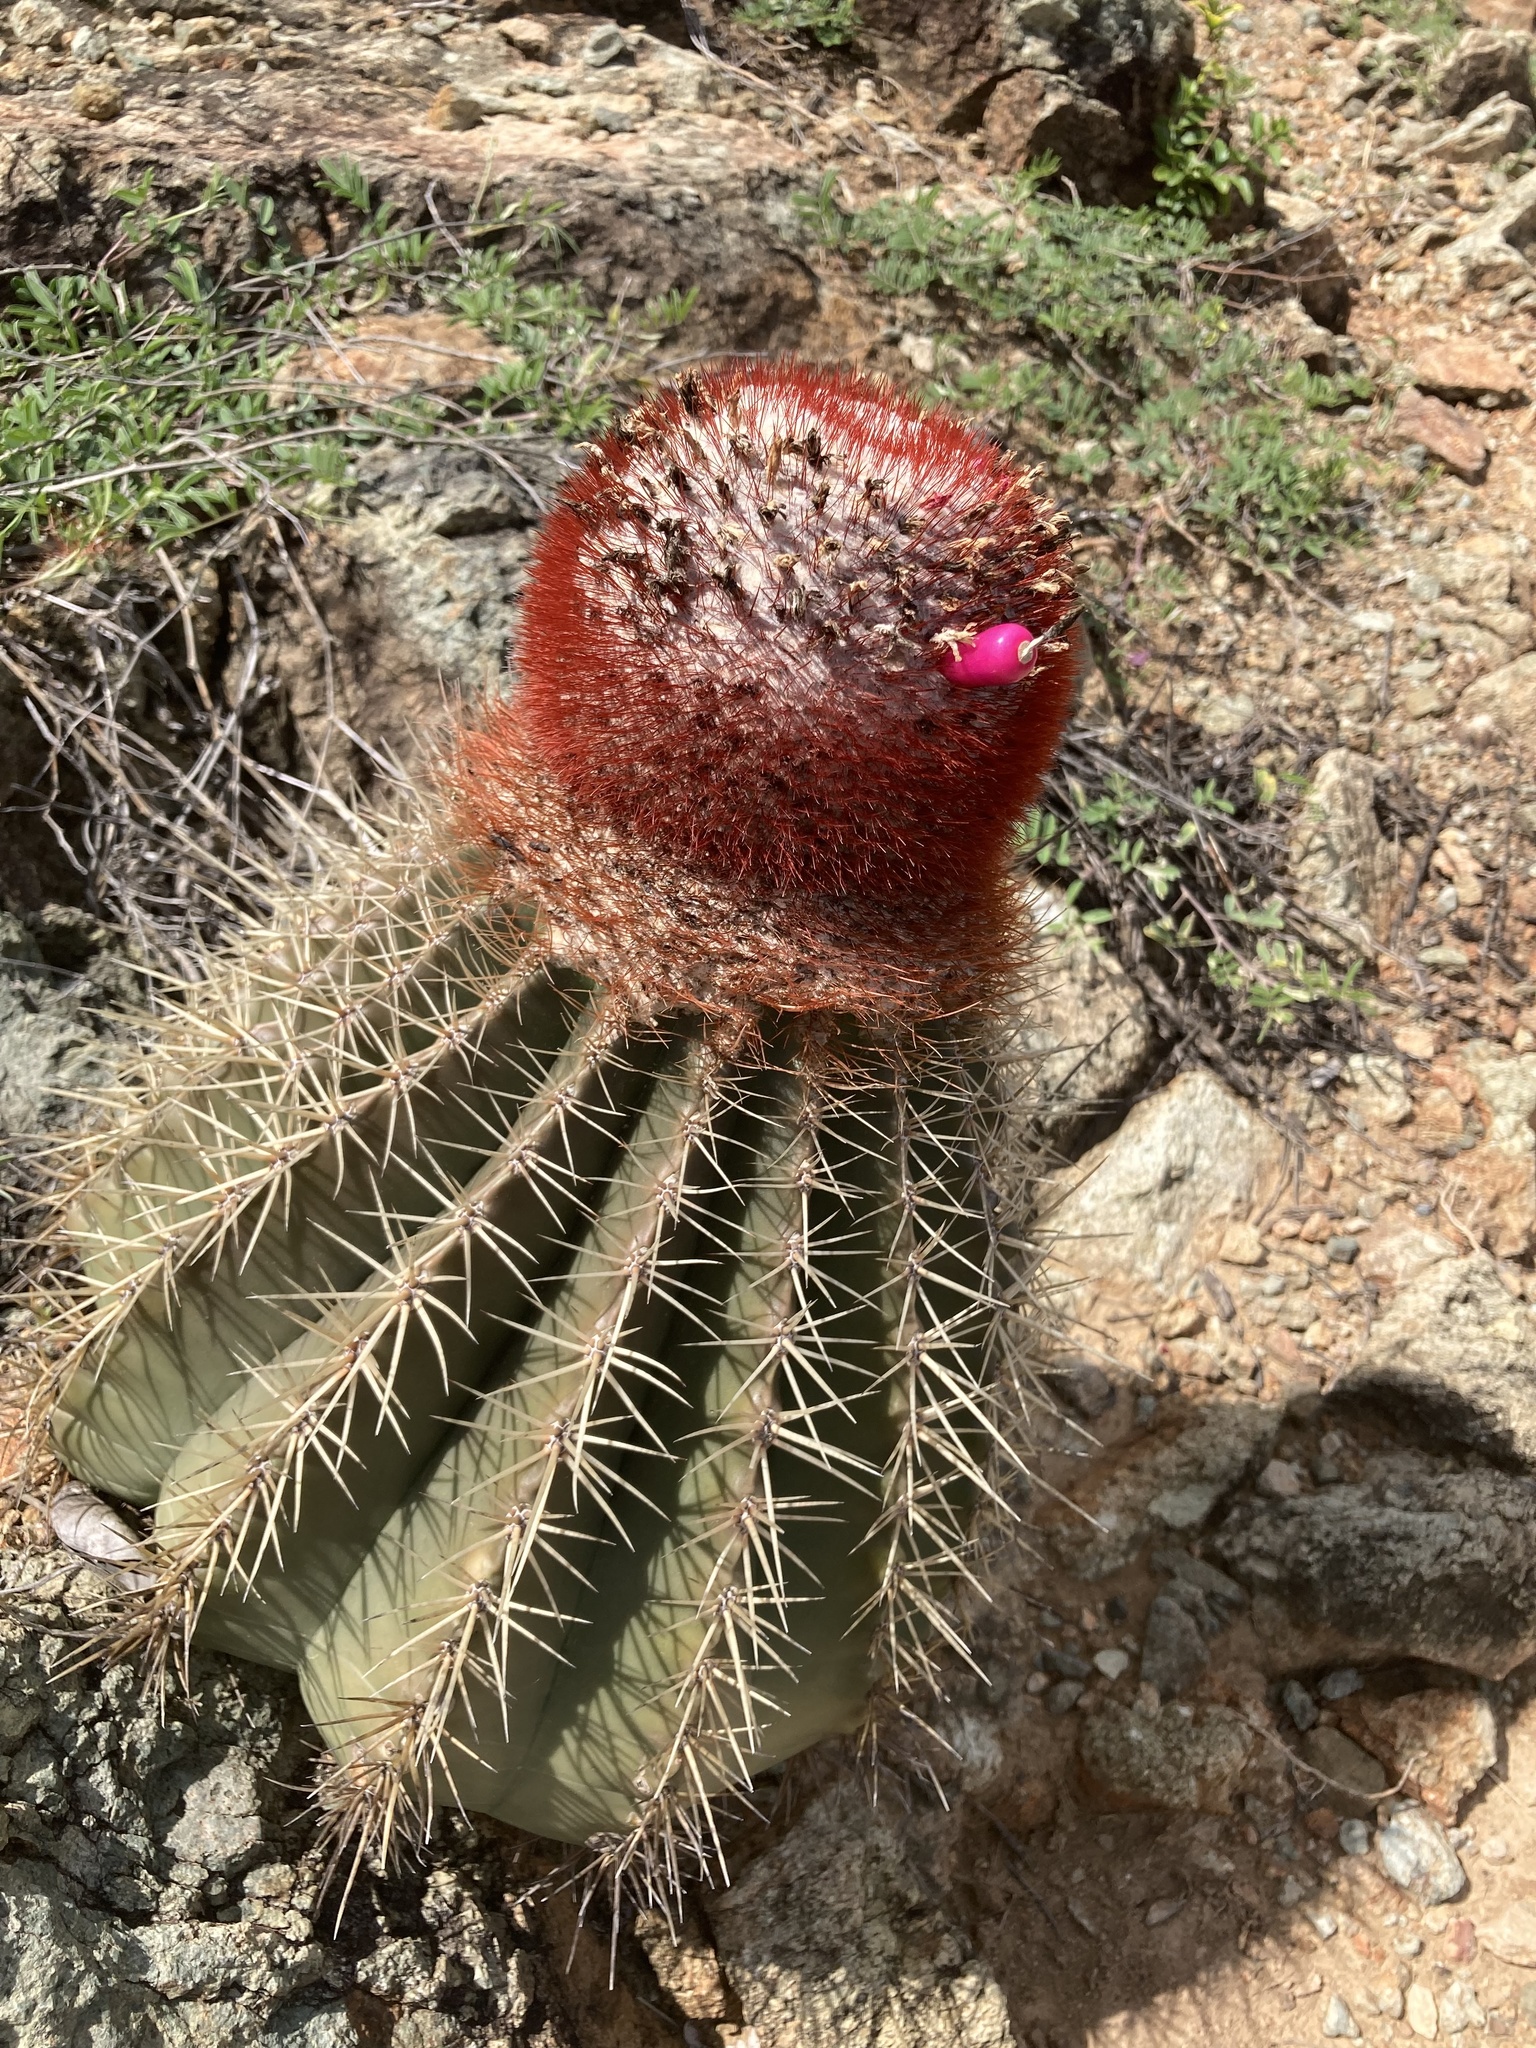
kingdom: Plantae
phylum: Tracheophyta
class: Magnoliopsida
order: Caryophyllales
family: Cactaceae
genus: Melocactus
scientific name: Melocactus intortus
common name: Barrel cactus
